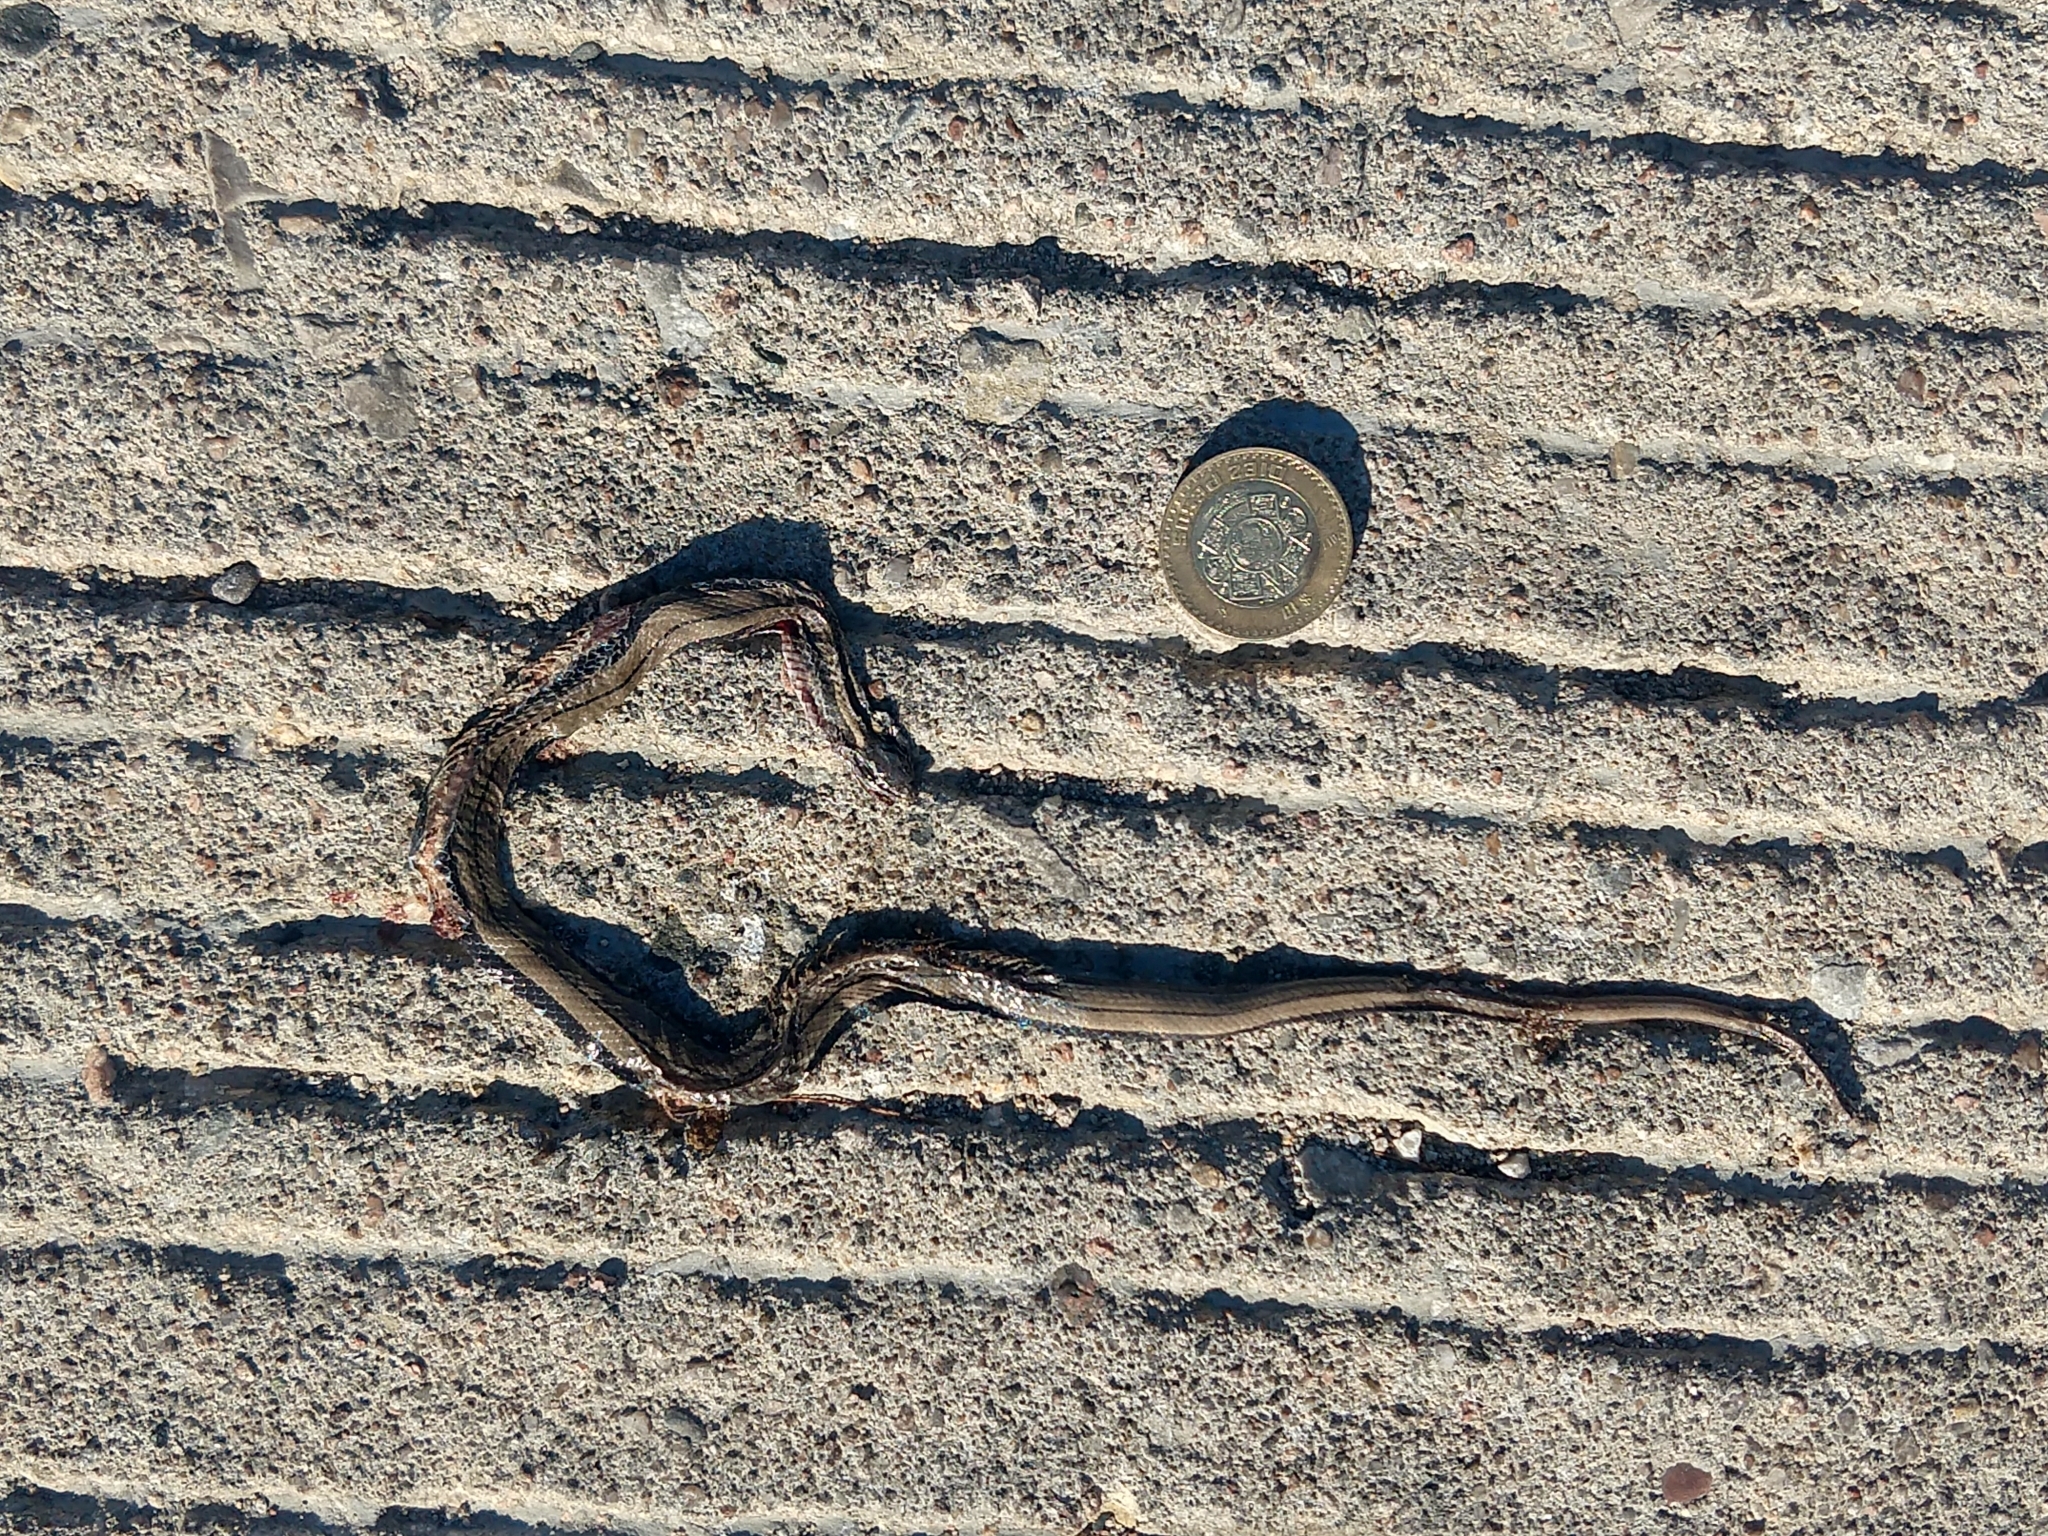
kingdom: Animalia
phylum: Chordata
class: Squamata
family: Colubridae
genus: Coniophanes
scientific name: Coniophanes imperialis
